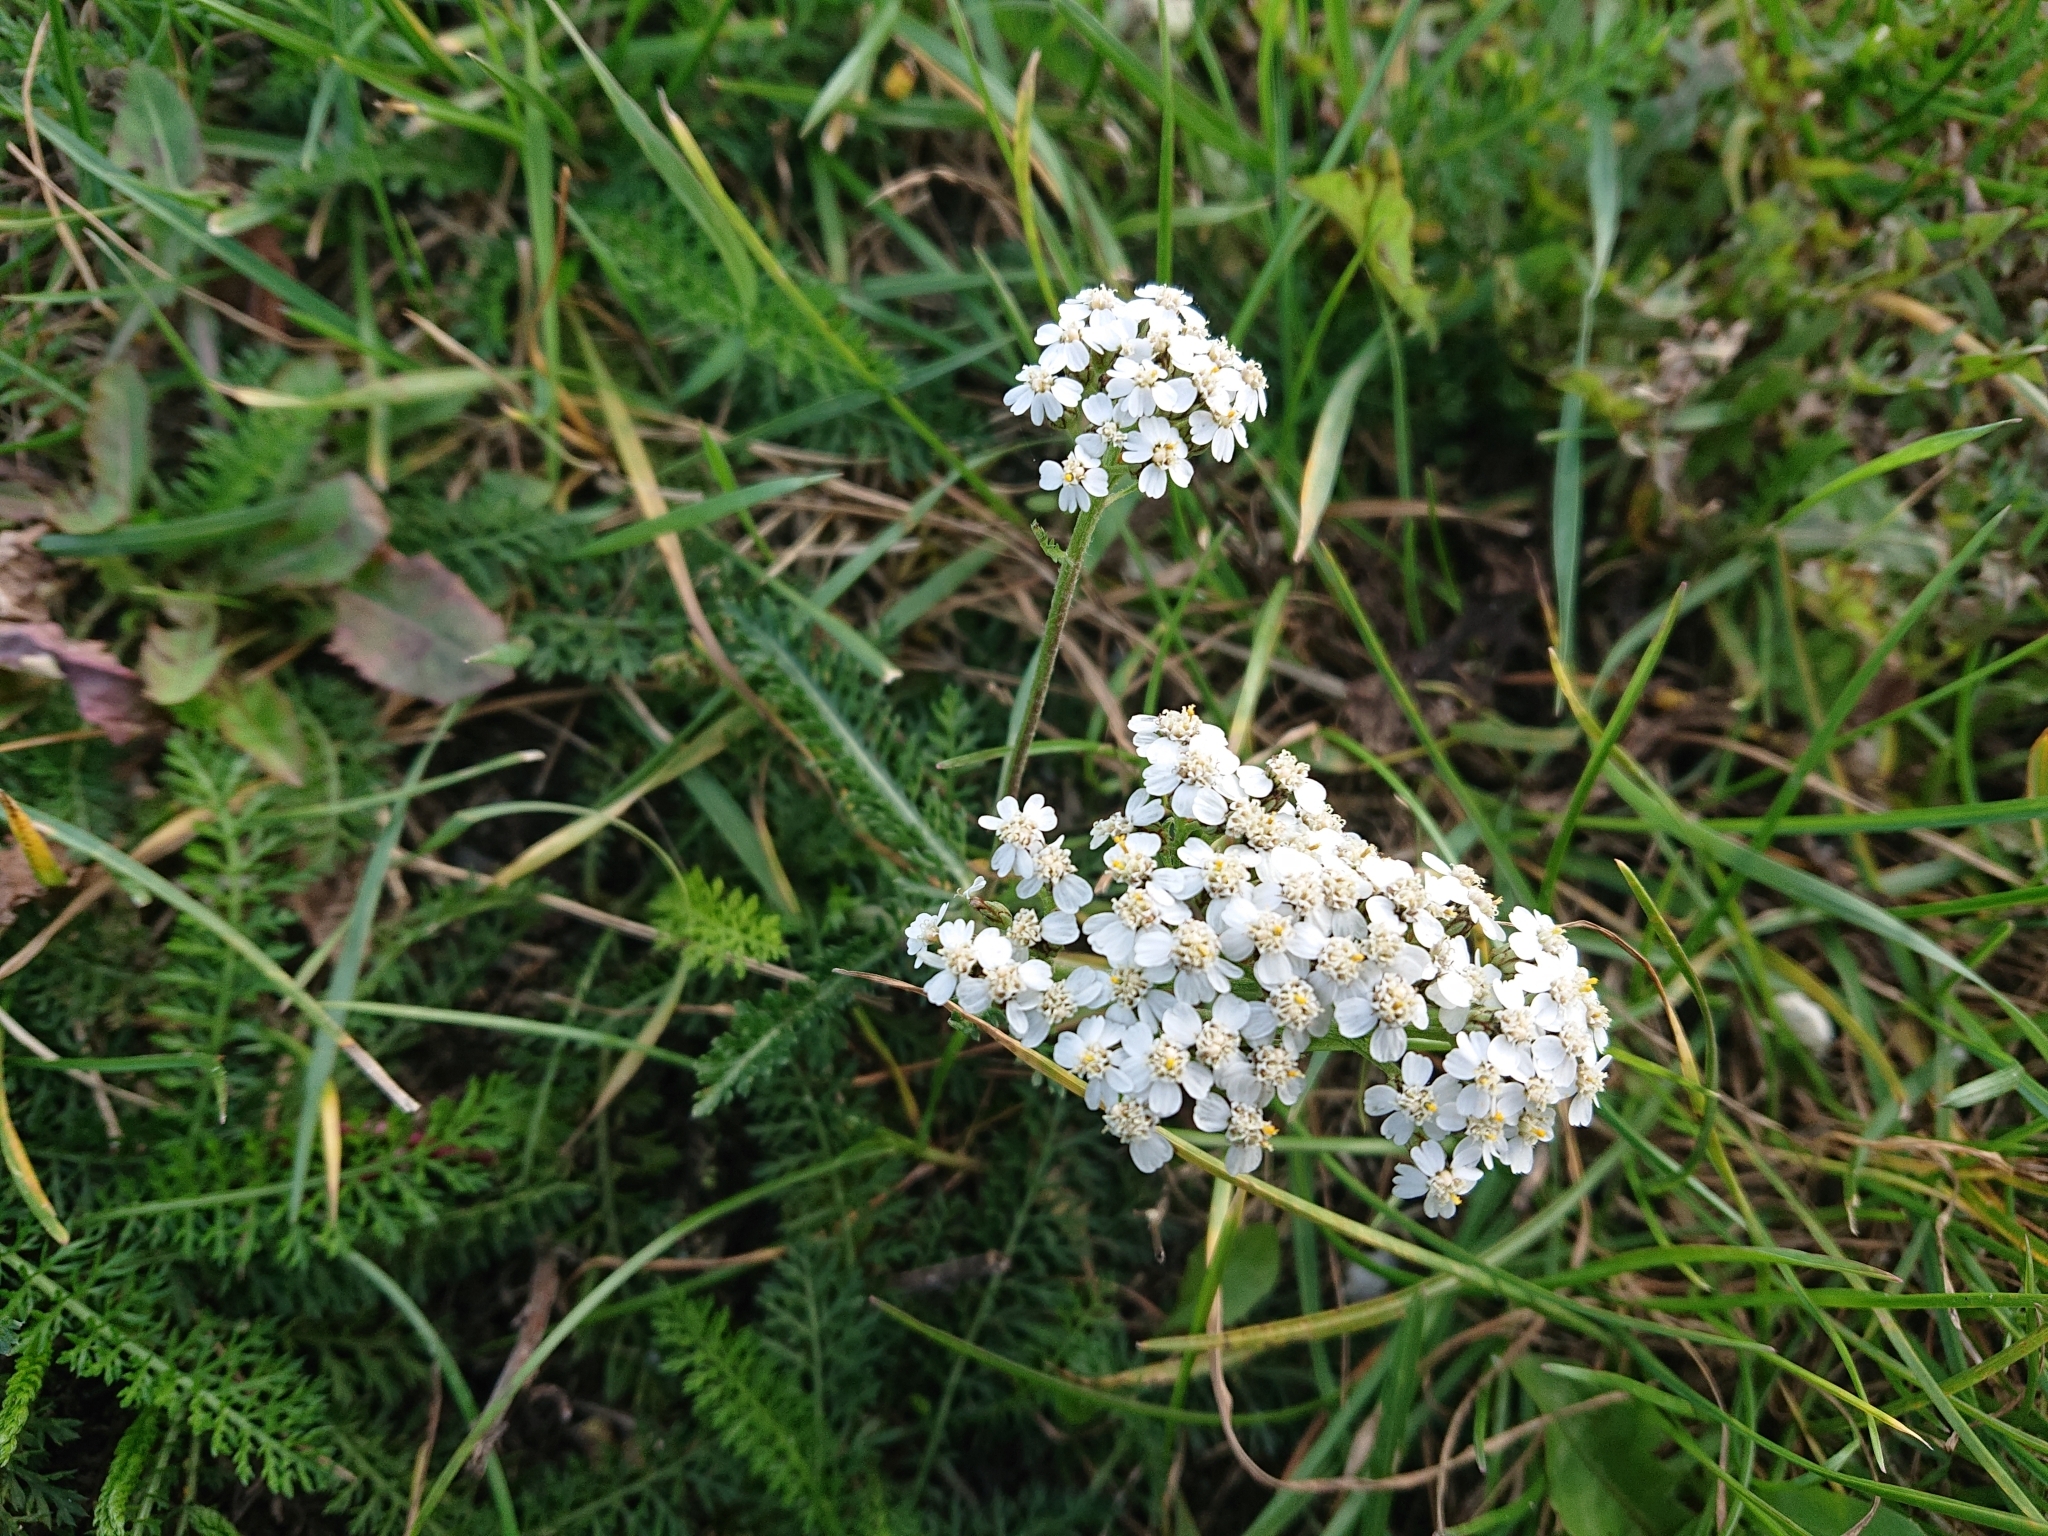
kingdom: Plantae
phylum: Tracheophyta
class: Magnoliopsida
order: Asterales
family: Asteraceae
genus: Achillea
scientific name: Achillea millefolium
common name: Yarrow
